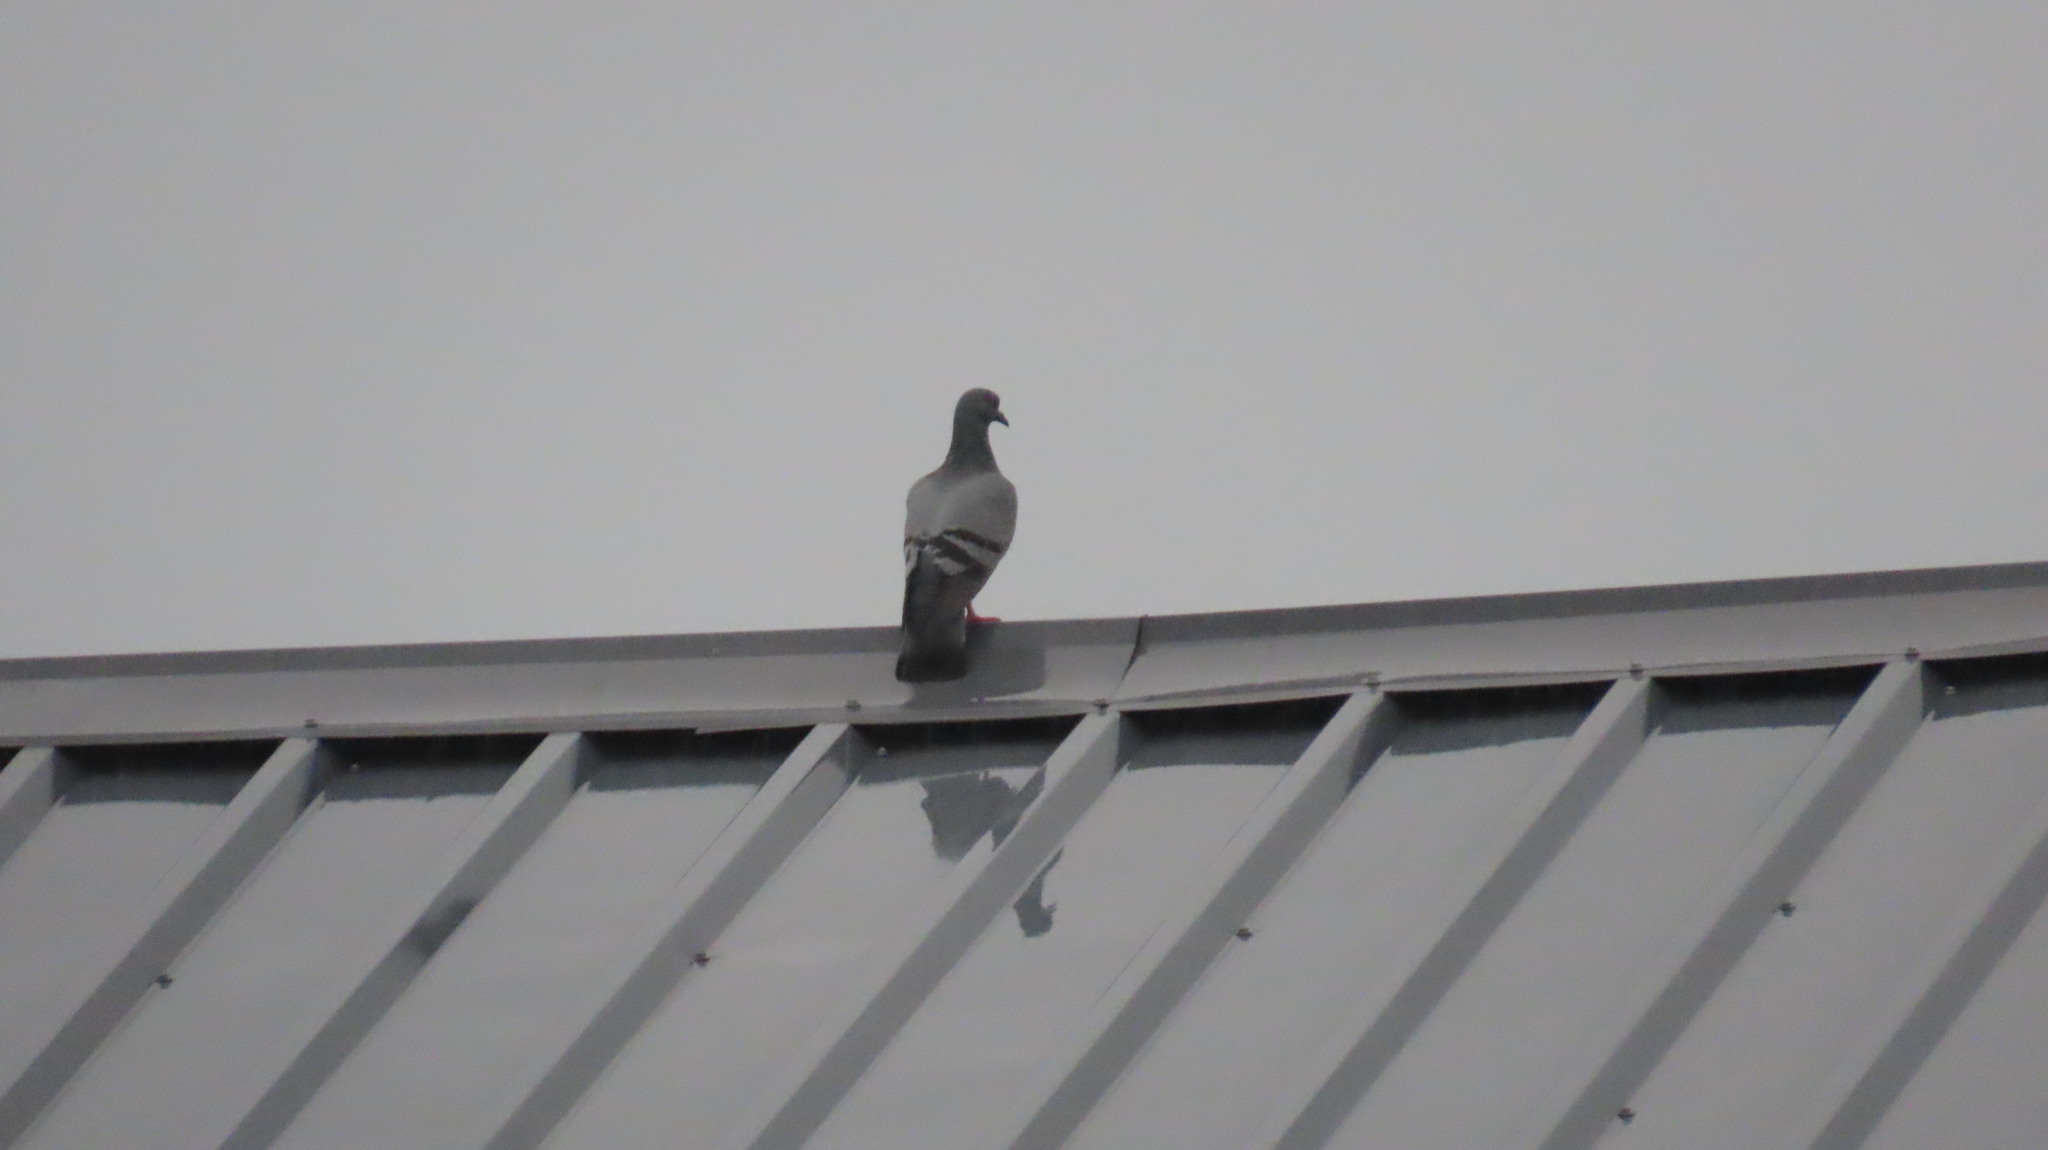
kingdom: Animalia
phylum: Chordata
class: Aves
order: Columbiformes
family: Columbidae
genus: Columba
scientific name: Columba livia
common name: Rock pigeon
